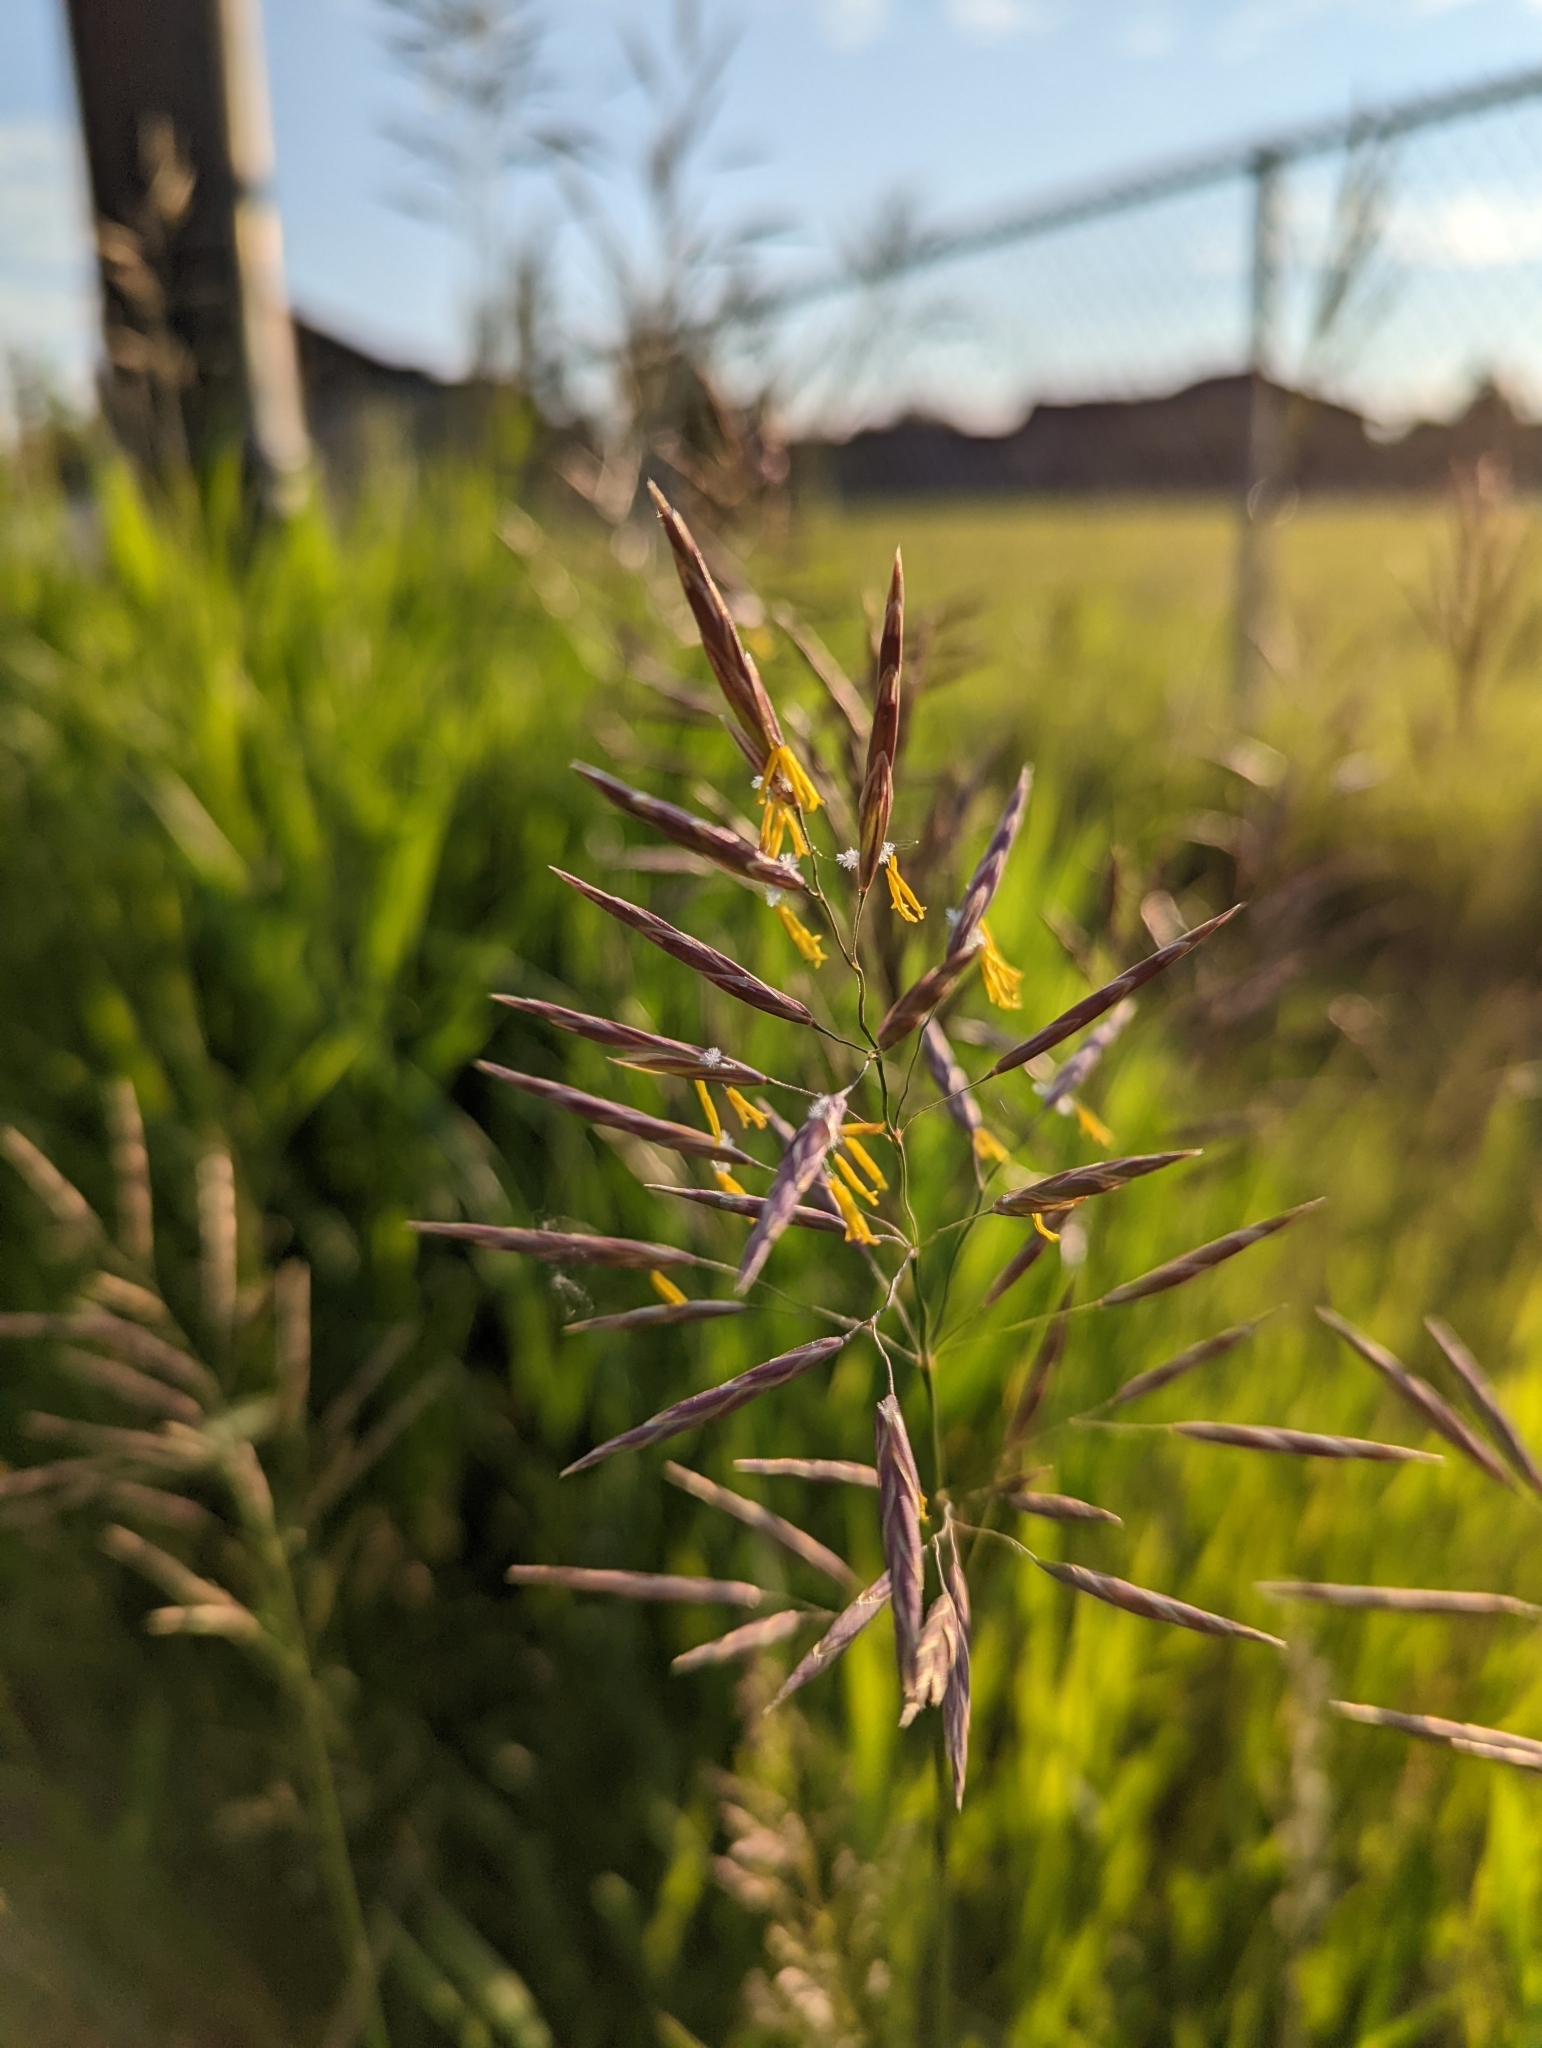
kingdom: Plantae
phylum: Tracheophyta
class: Liliopsida
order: Poales
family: Poaceae
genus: Bromus
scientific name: Bromus inermis
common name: Smooth brome
